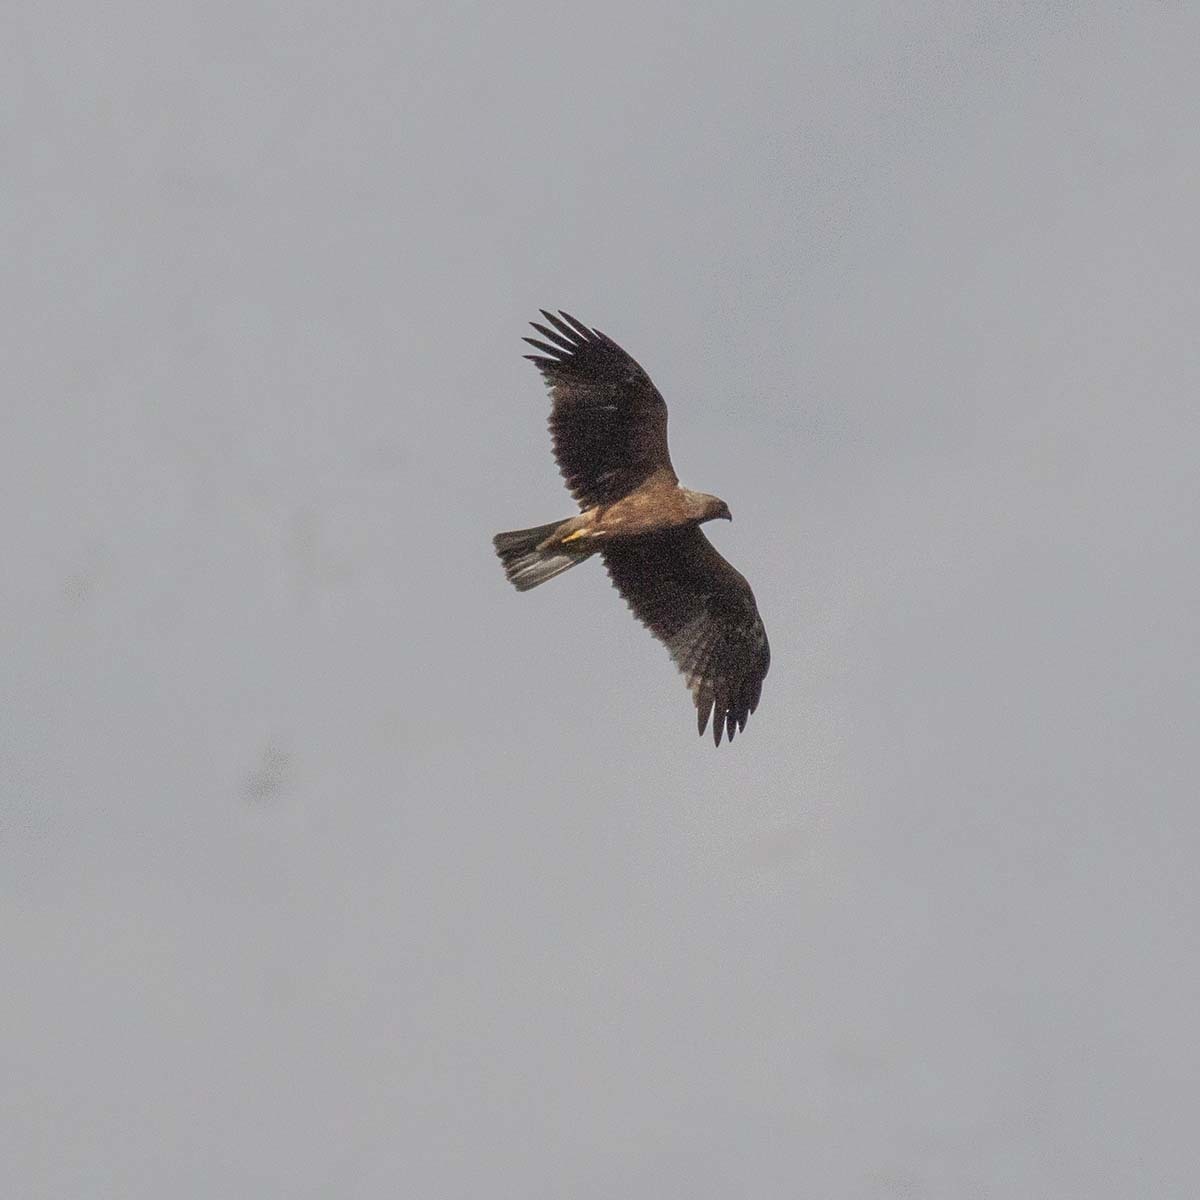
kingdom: Animalia
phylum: Chordata
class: Aves
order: Accipitriformes
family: Accipitridae
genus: Hieraaetus
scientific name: Hieraaetus pennatus
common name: Booted eagle
